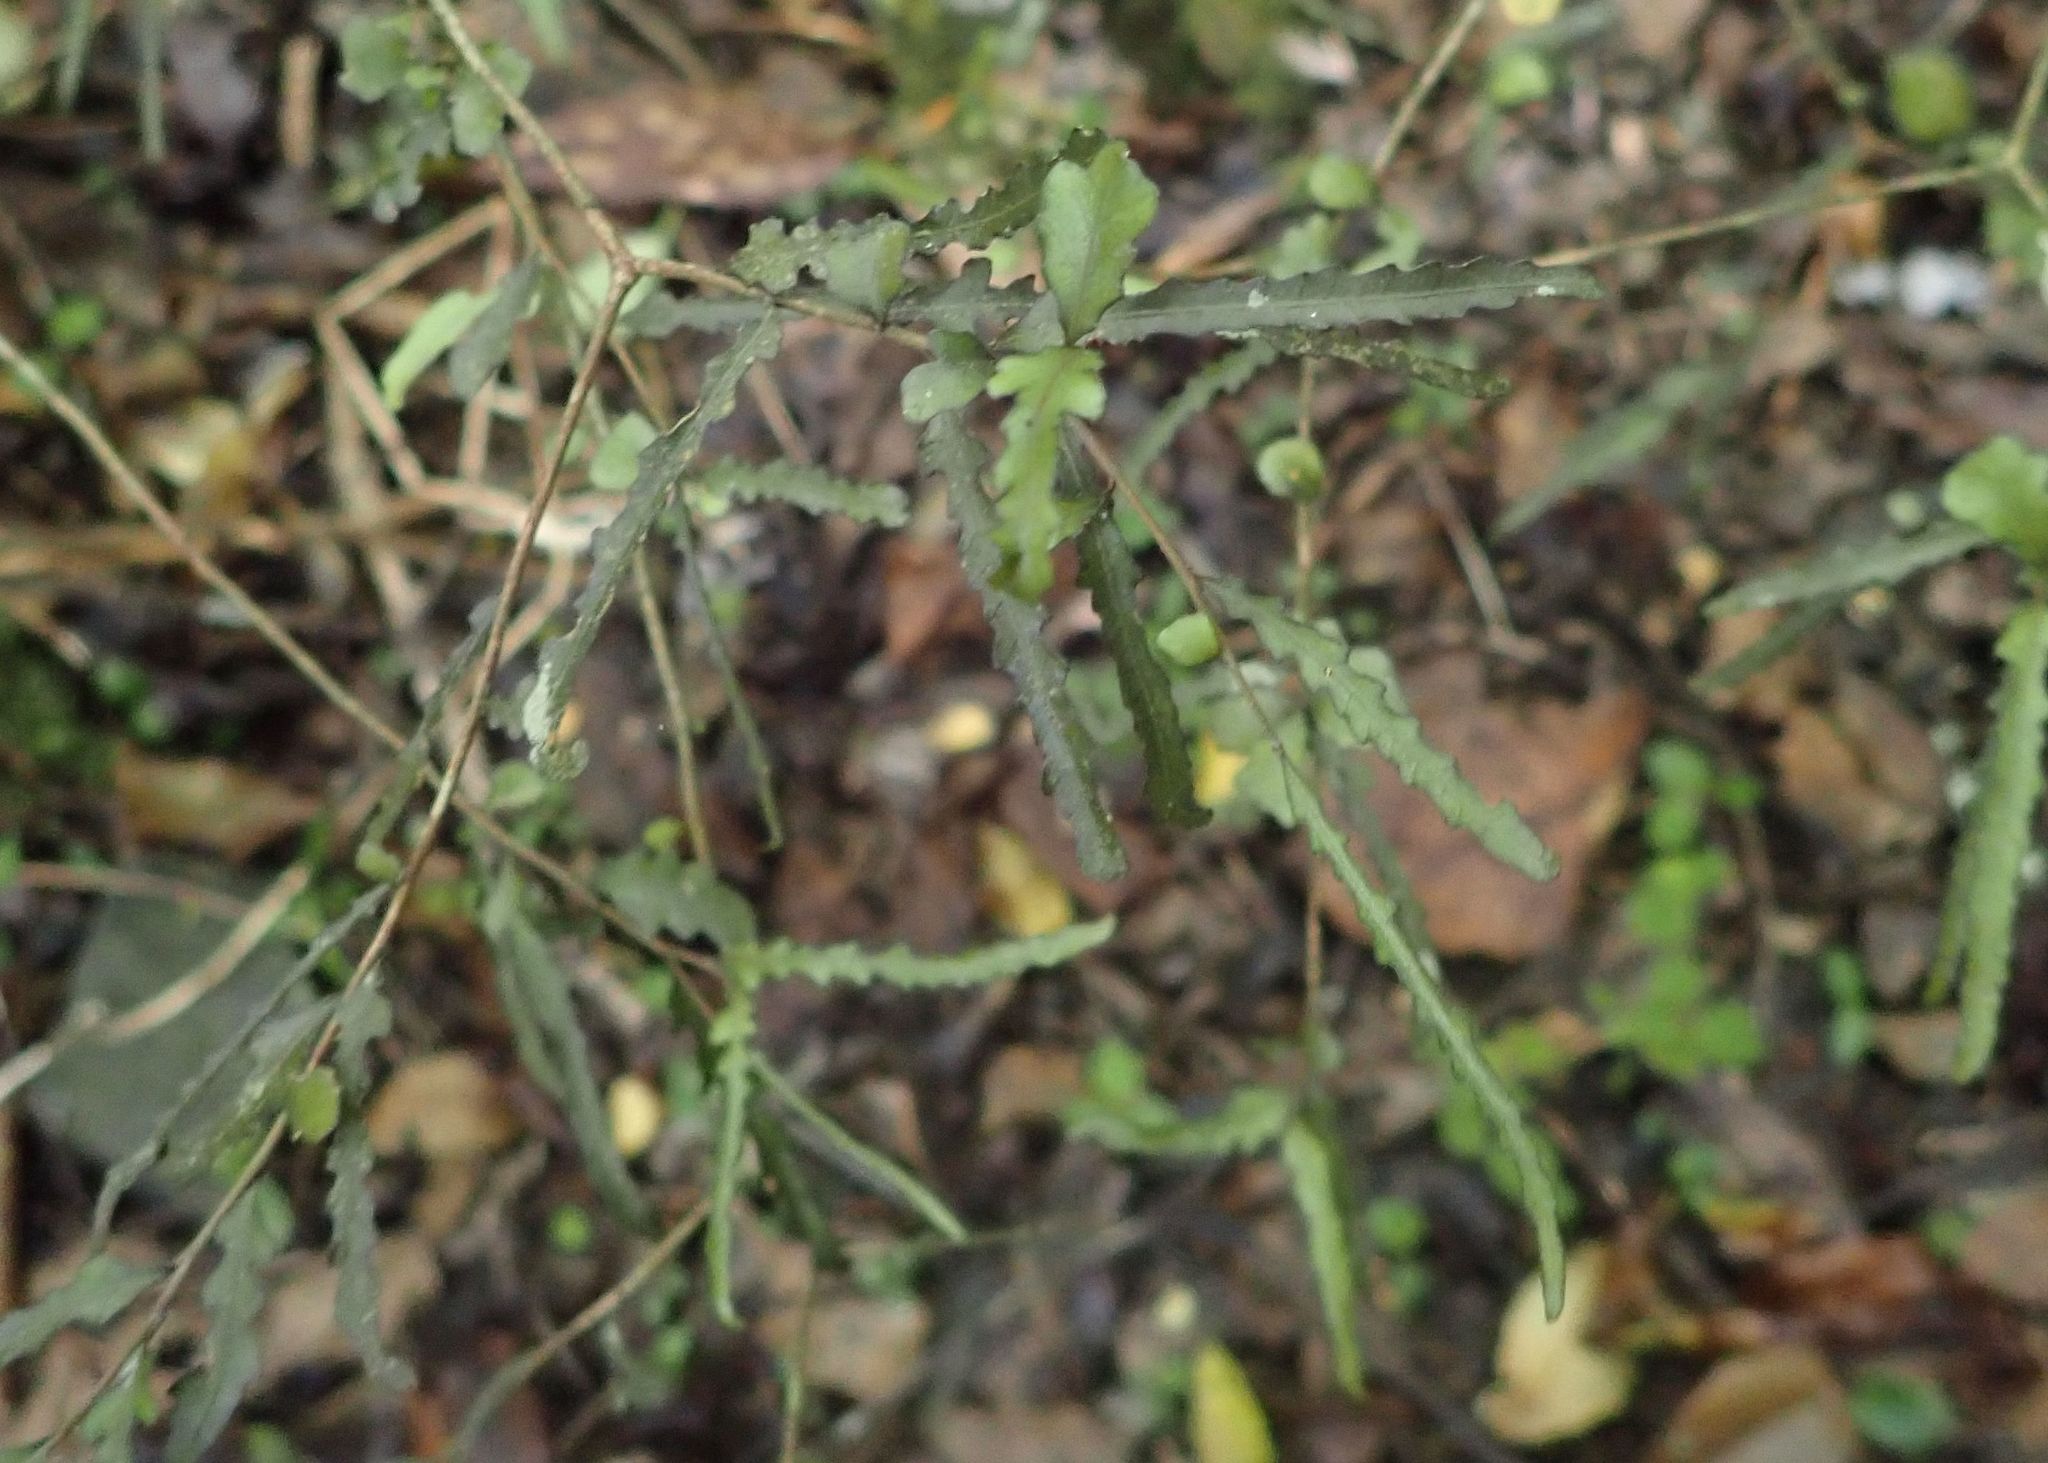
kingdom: Plantae
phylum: Tracheophyta
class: Magnoliopsida
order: Oxalidales
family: Elaeocarpaceae
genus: Elaeocarpus
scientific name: Elaeocarpus hookerianus
